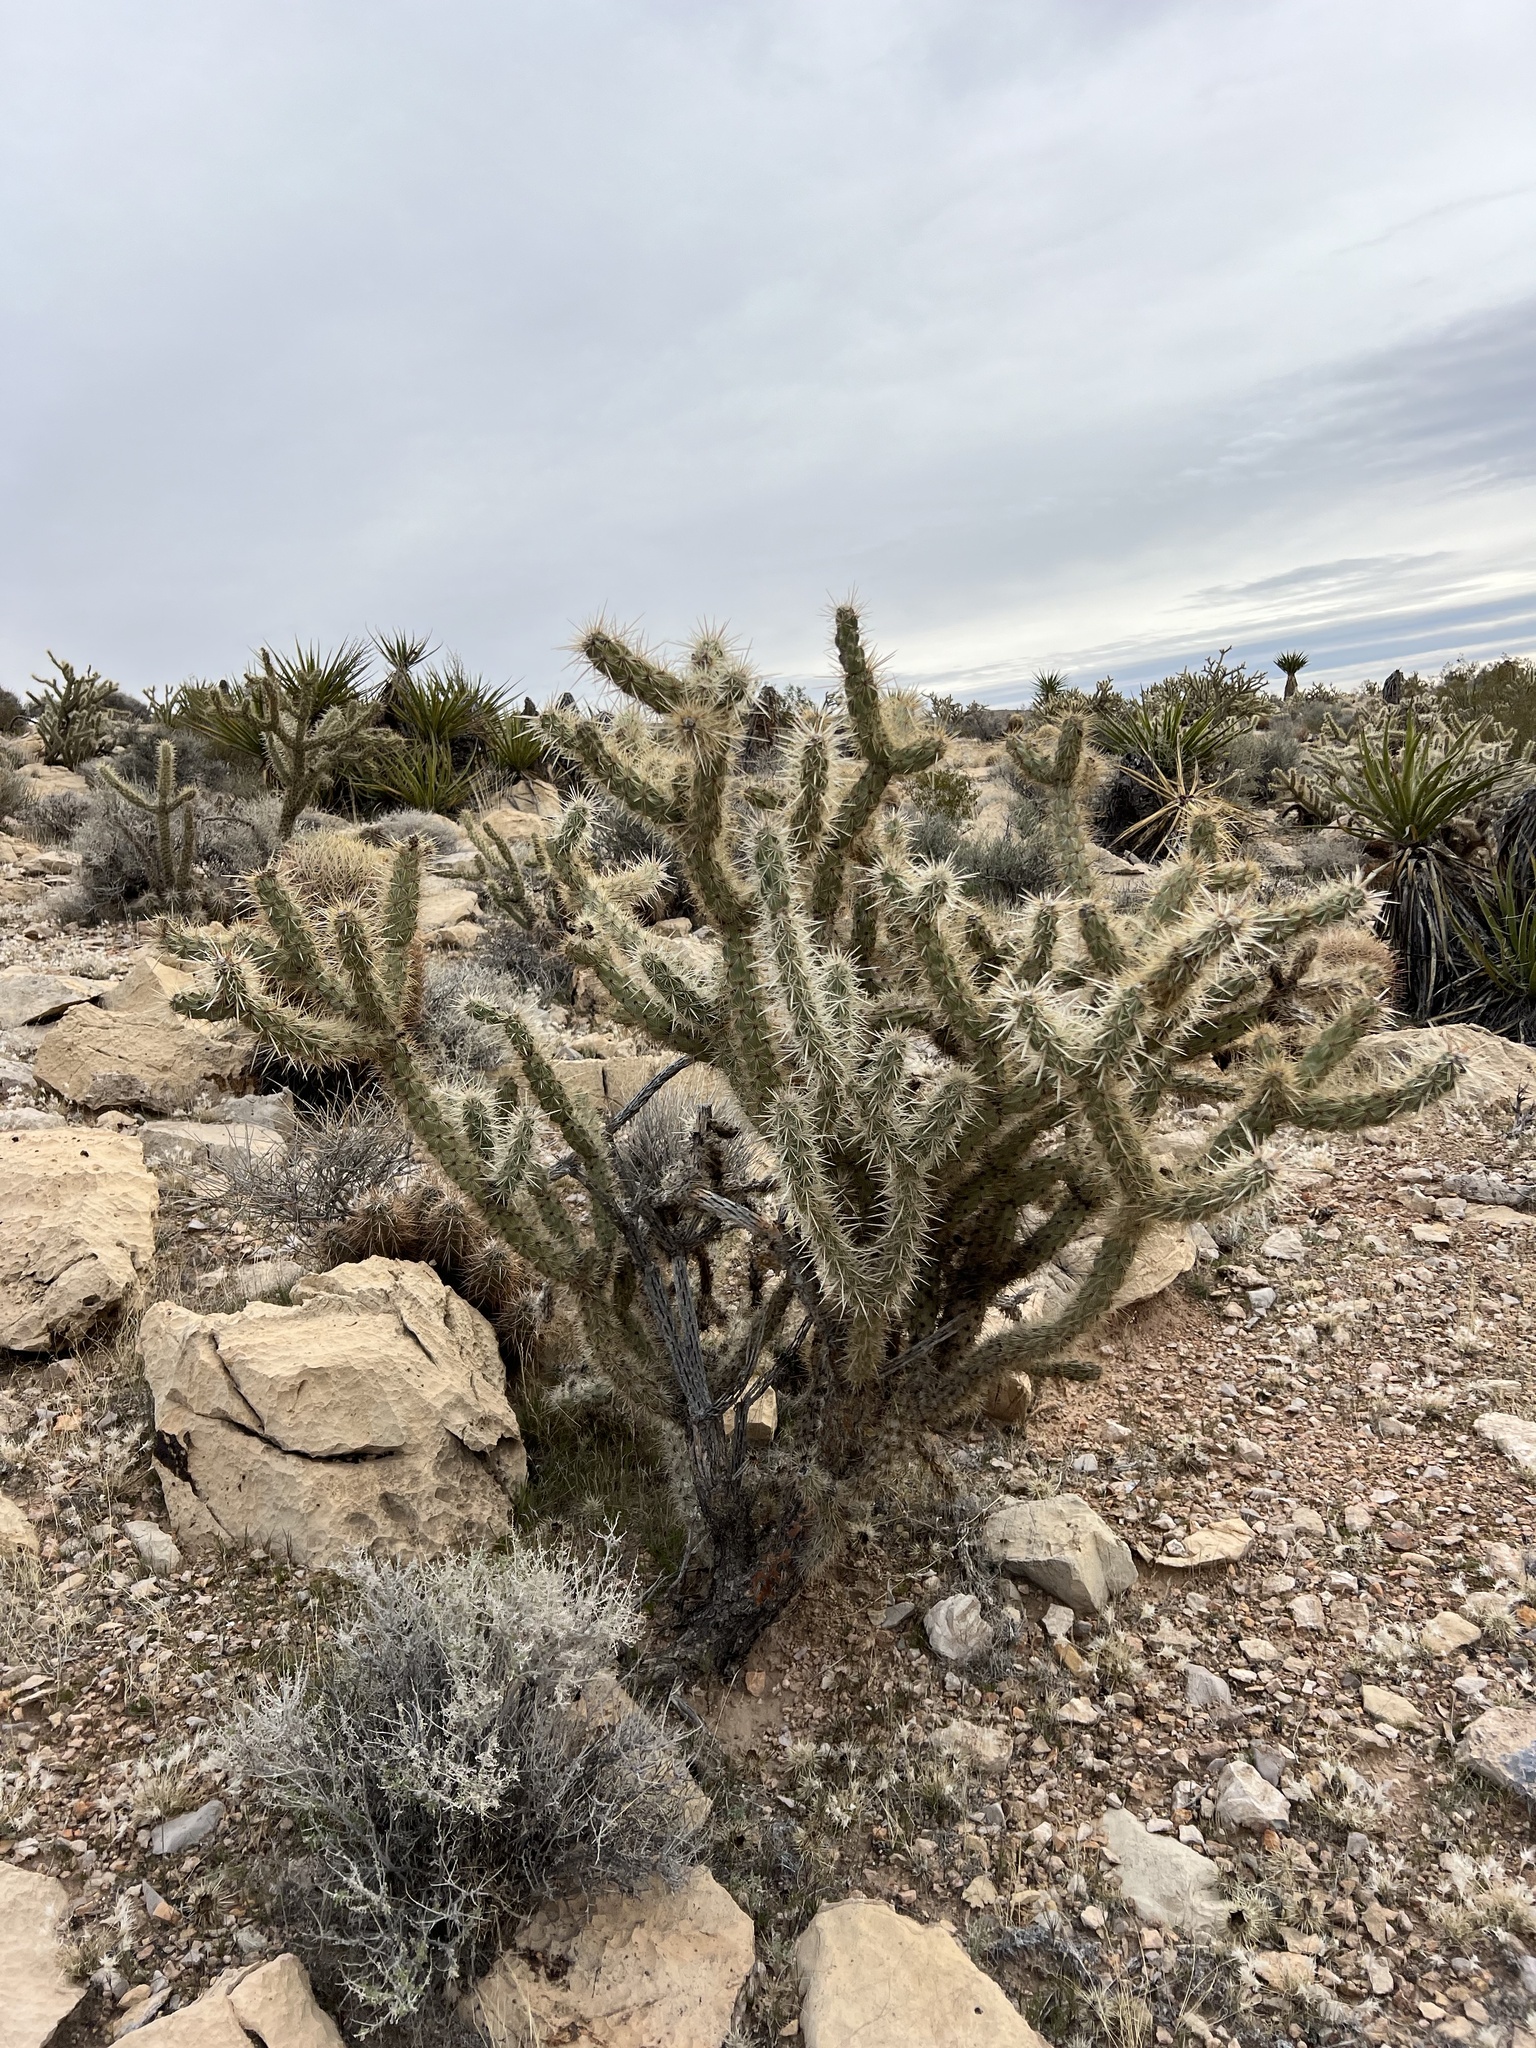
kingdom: Plantae
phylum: Tracheophyta
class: Magnoliopsida
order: Caryophyllales
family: Cactaceae
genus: Cylindropuntia
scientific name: Cylindropuntia acanthocarpa
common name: Buckhorn cholla
